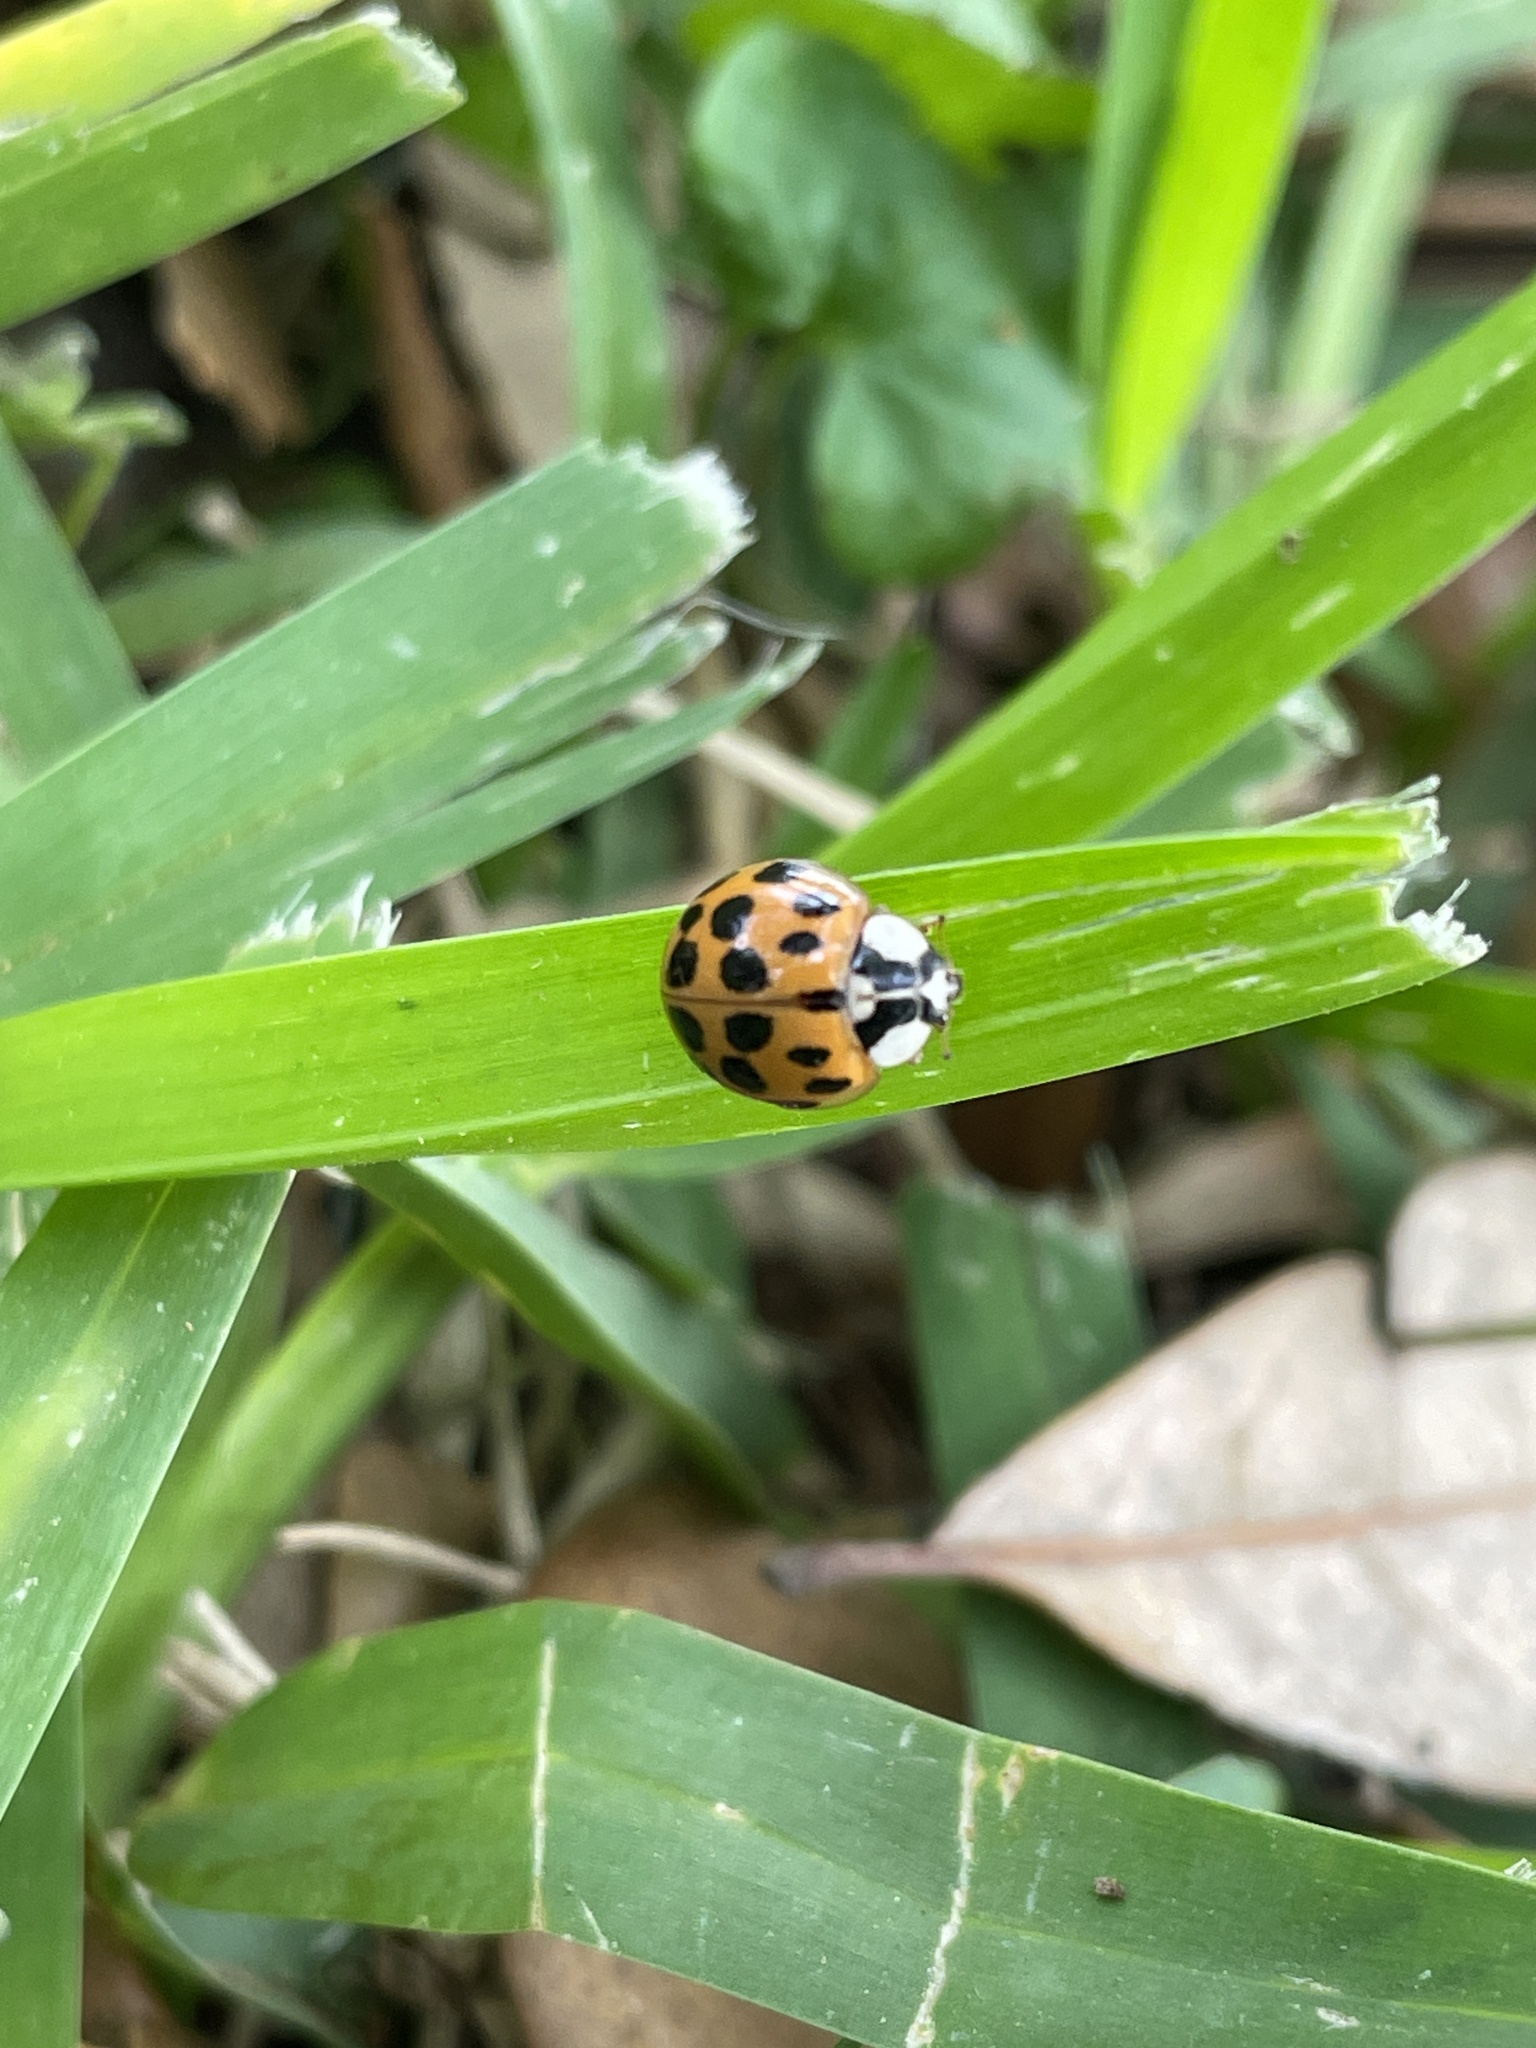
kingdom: Animalia
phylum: Arthropoda
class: Insecta
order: Coleoptera
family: Coccinellidae
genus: Harmonia
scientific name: Harmonia axyridis
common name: Harlequin ladybird
